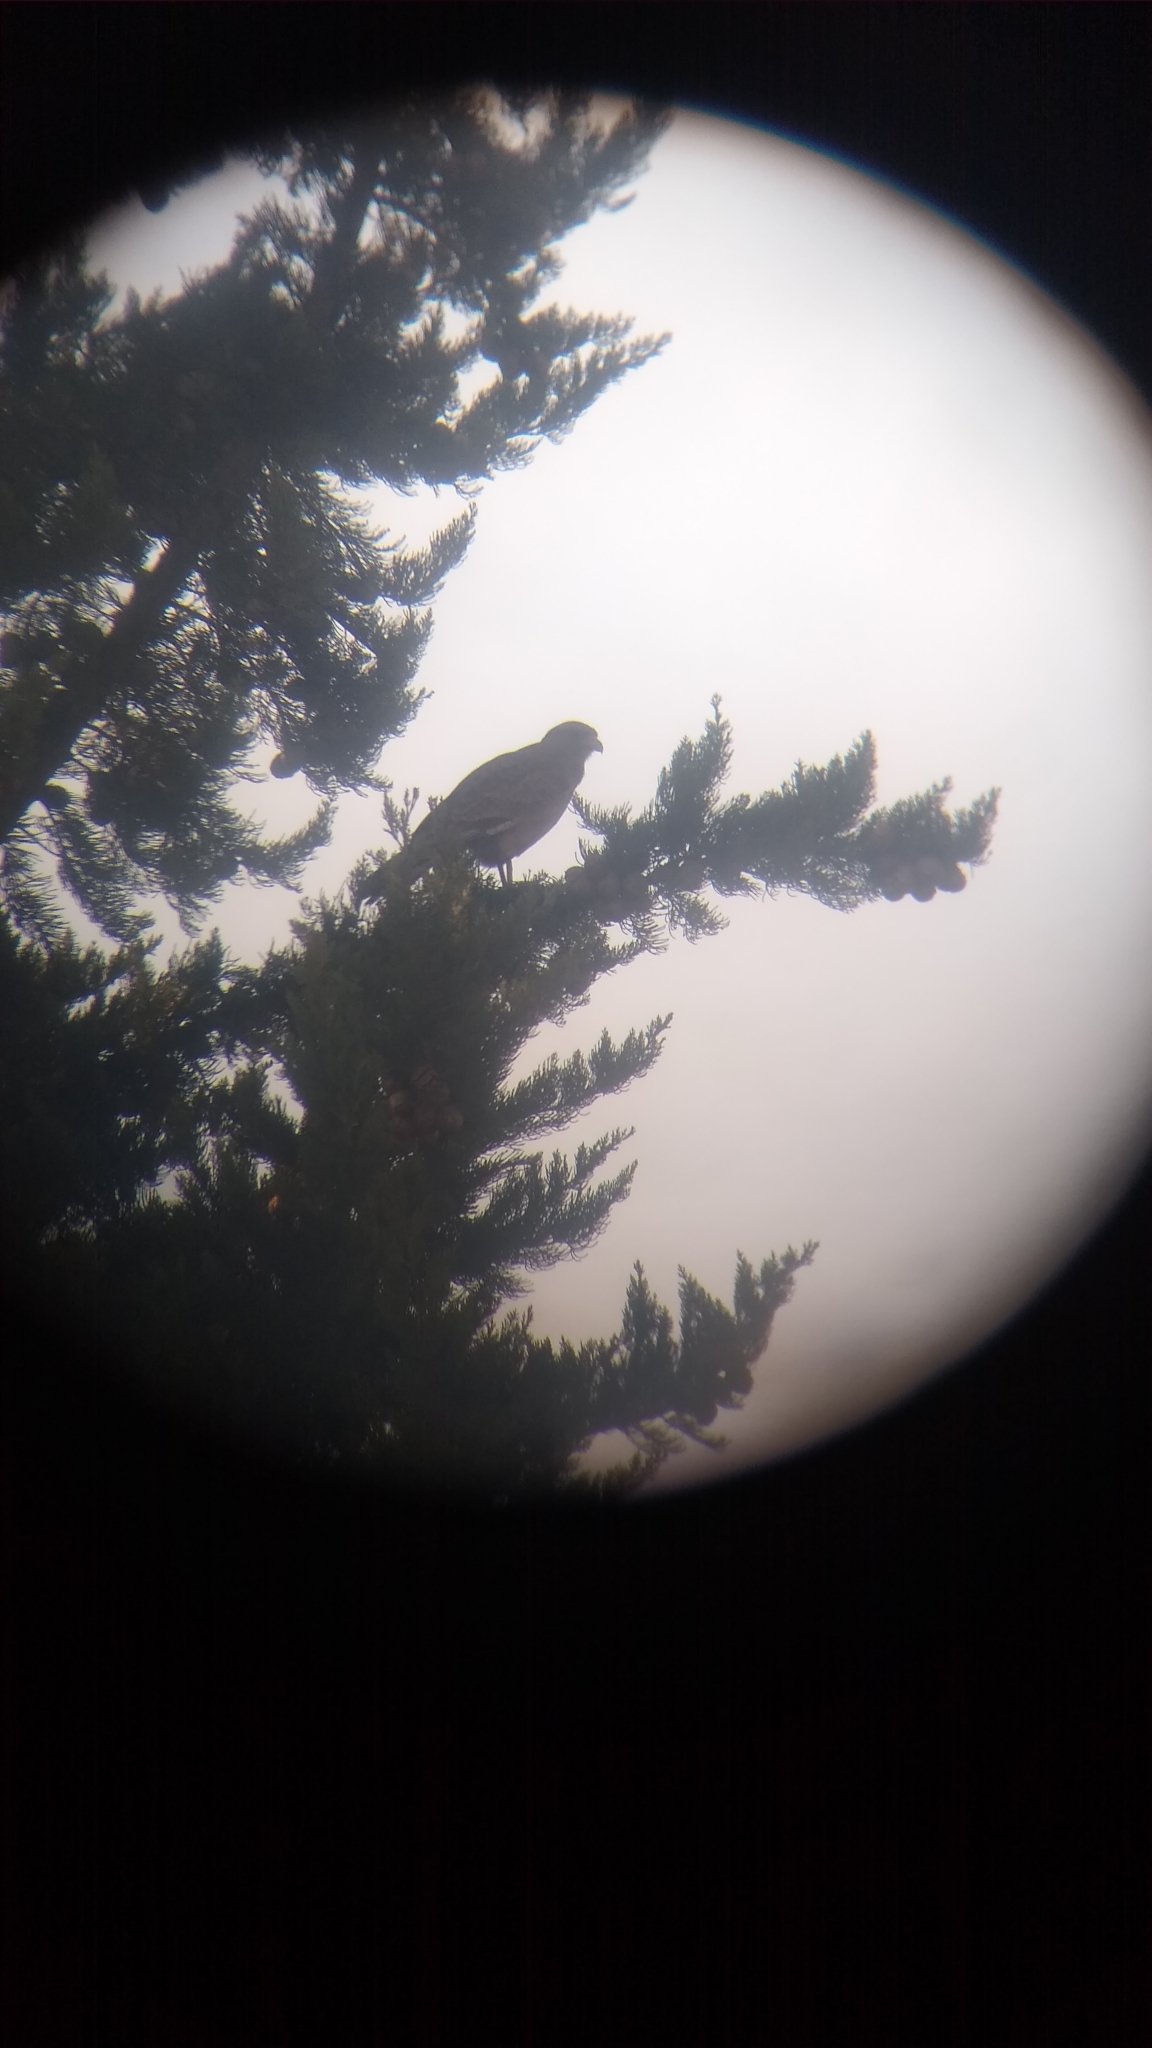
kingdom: Animalia
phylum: Chordata
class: Aves
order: Falconiformes
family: Falconidae
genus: Daptrius
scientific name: Daptrius
